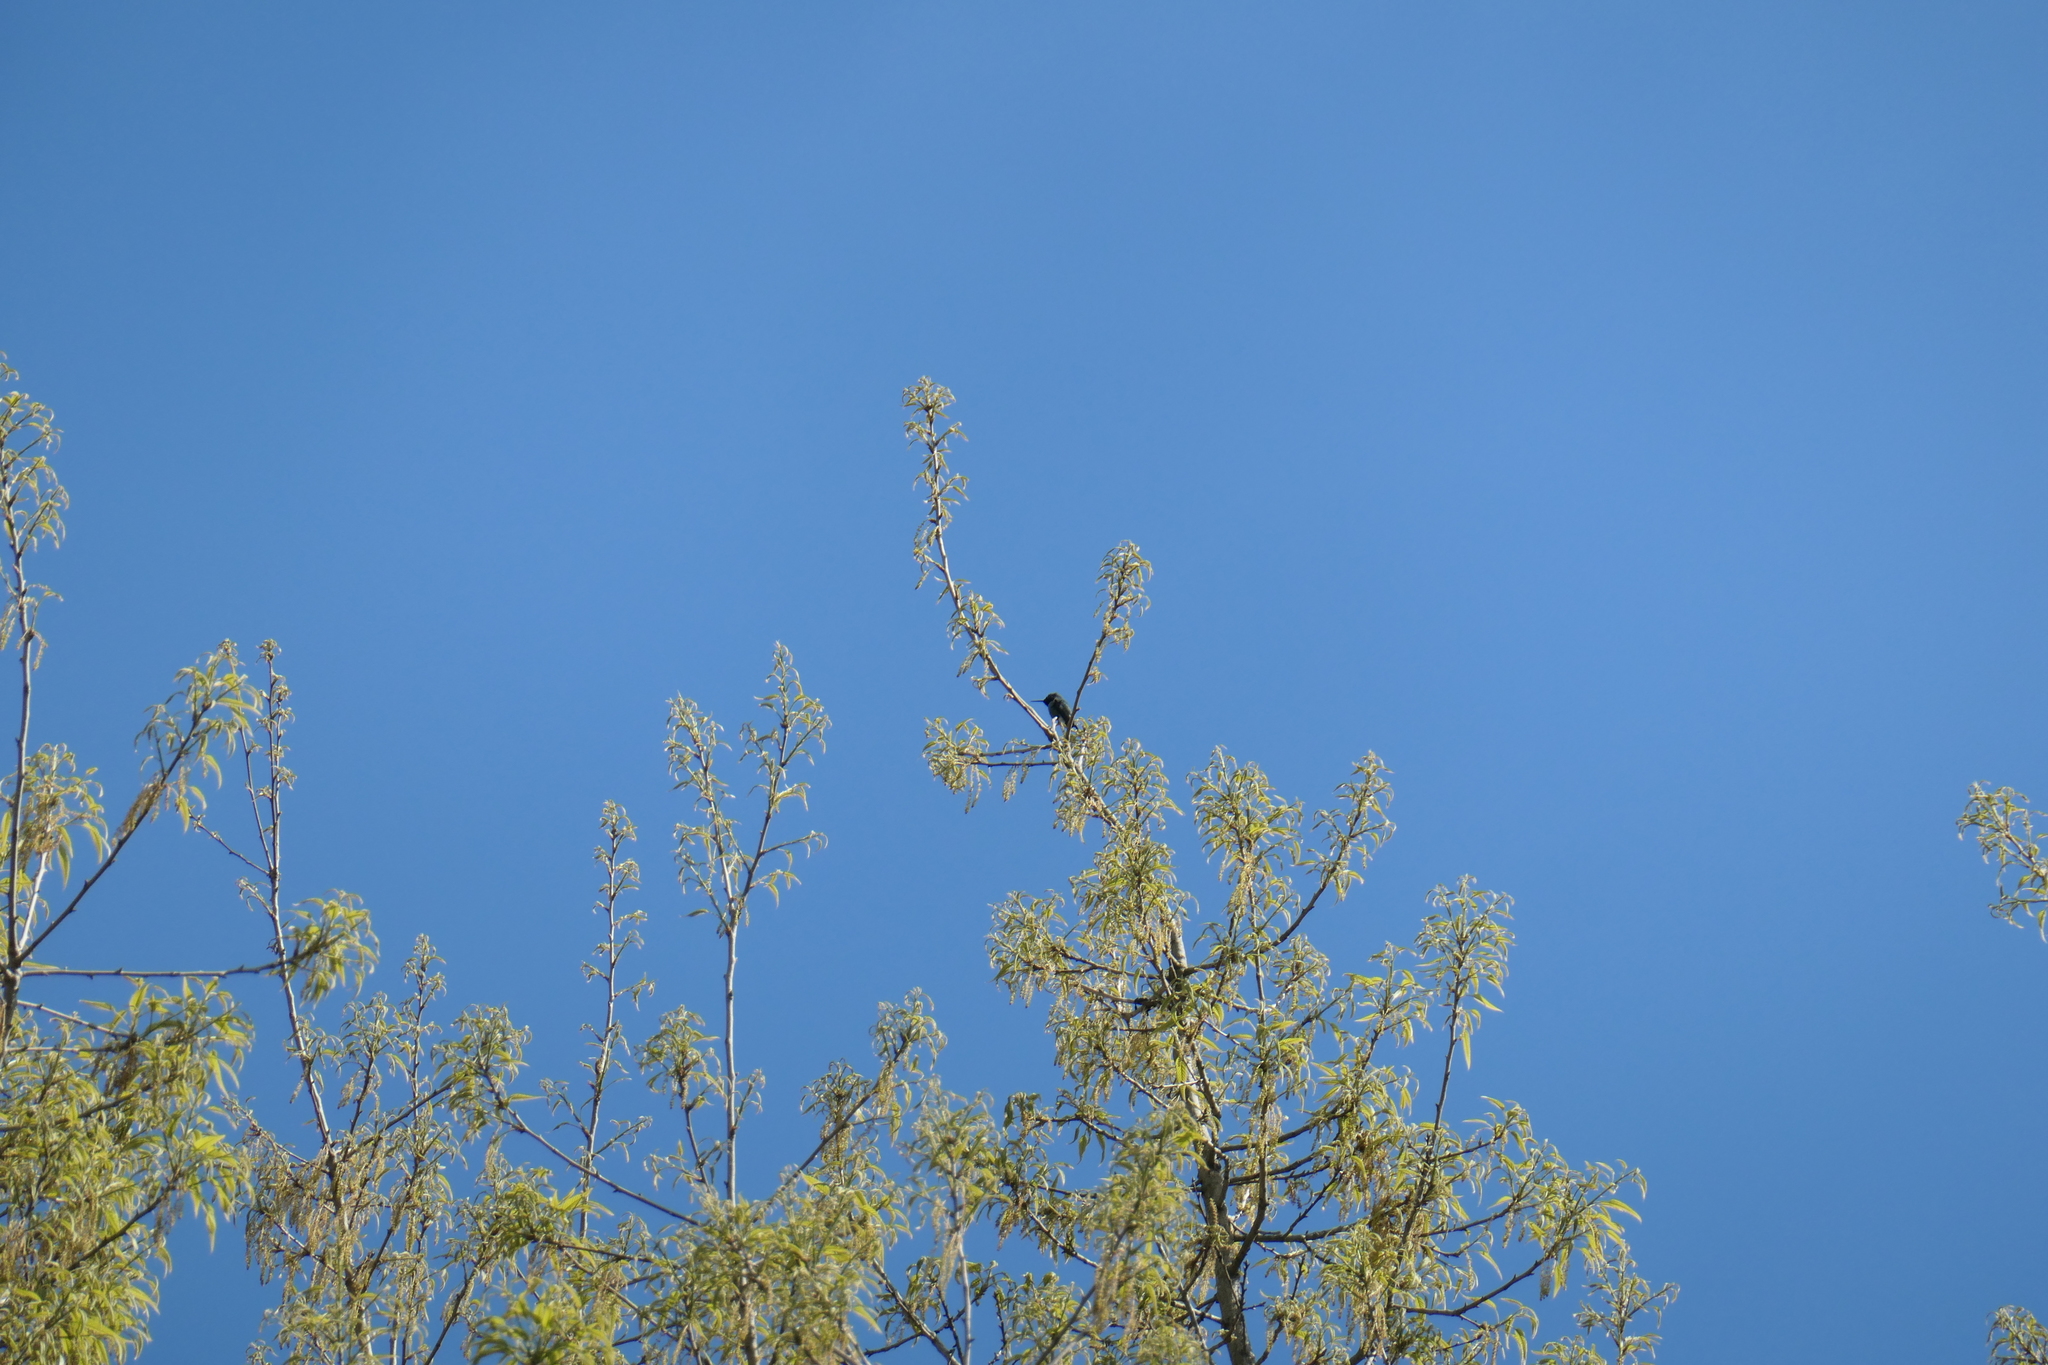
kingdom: Animalia
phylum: Chordata
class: Aves
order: Apodiformes
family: Trochilidae
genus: Calypte
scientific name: Calypte anna
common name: Anna's hummingbird
